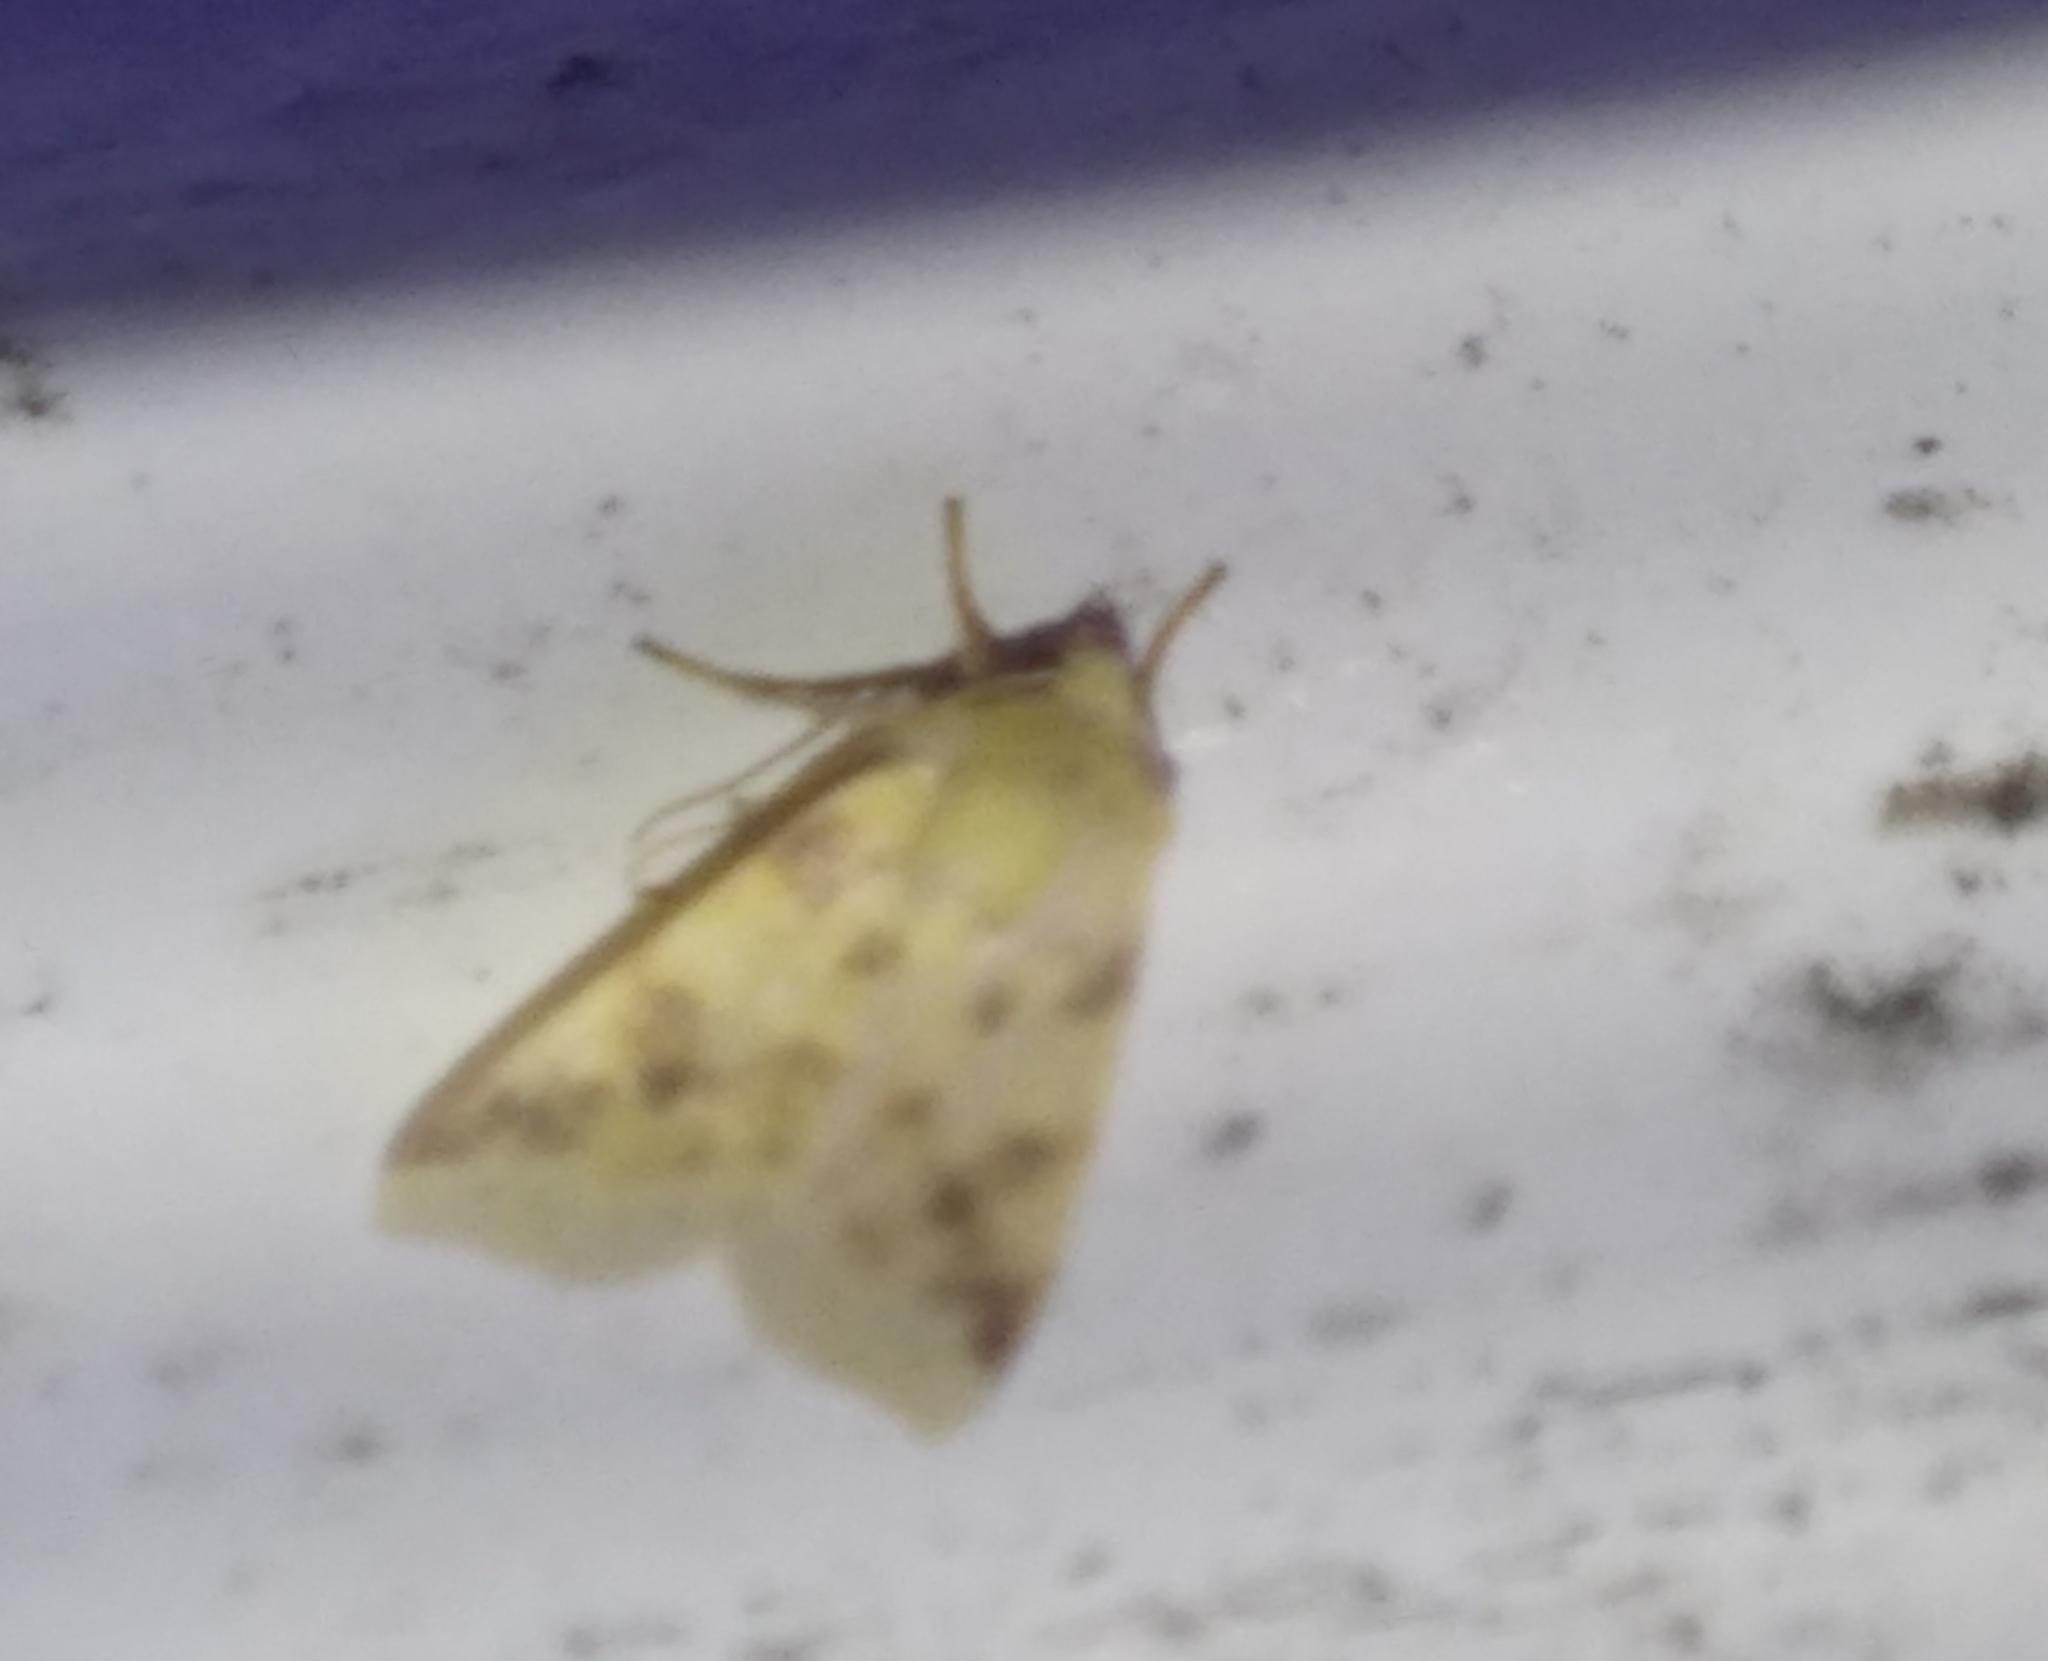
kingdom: Animalia
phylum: Arthropoda
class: Insecta
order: Lepidoptera
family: Noctuidae
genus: Xanthia
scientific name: Xanthia icteritia
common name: The sallow
